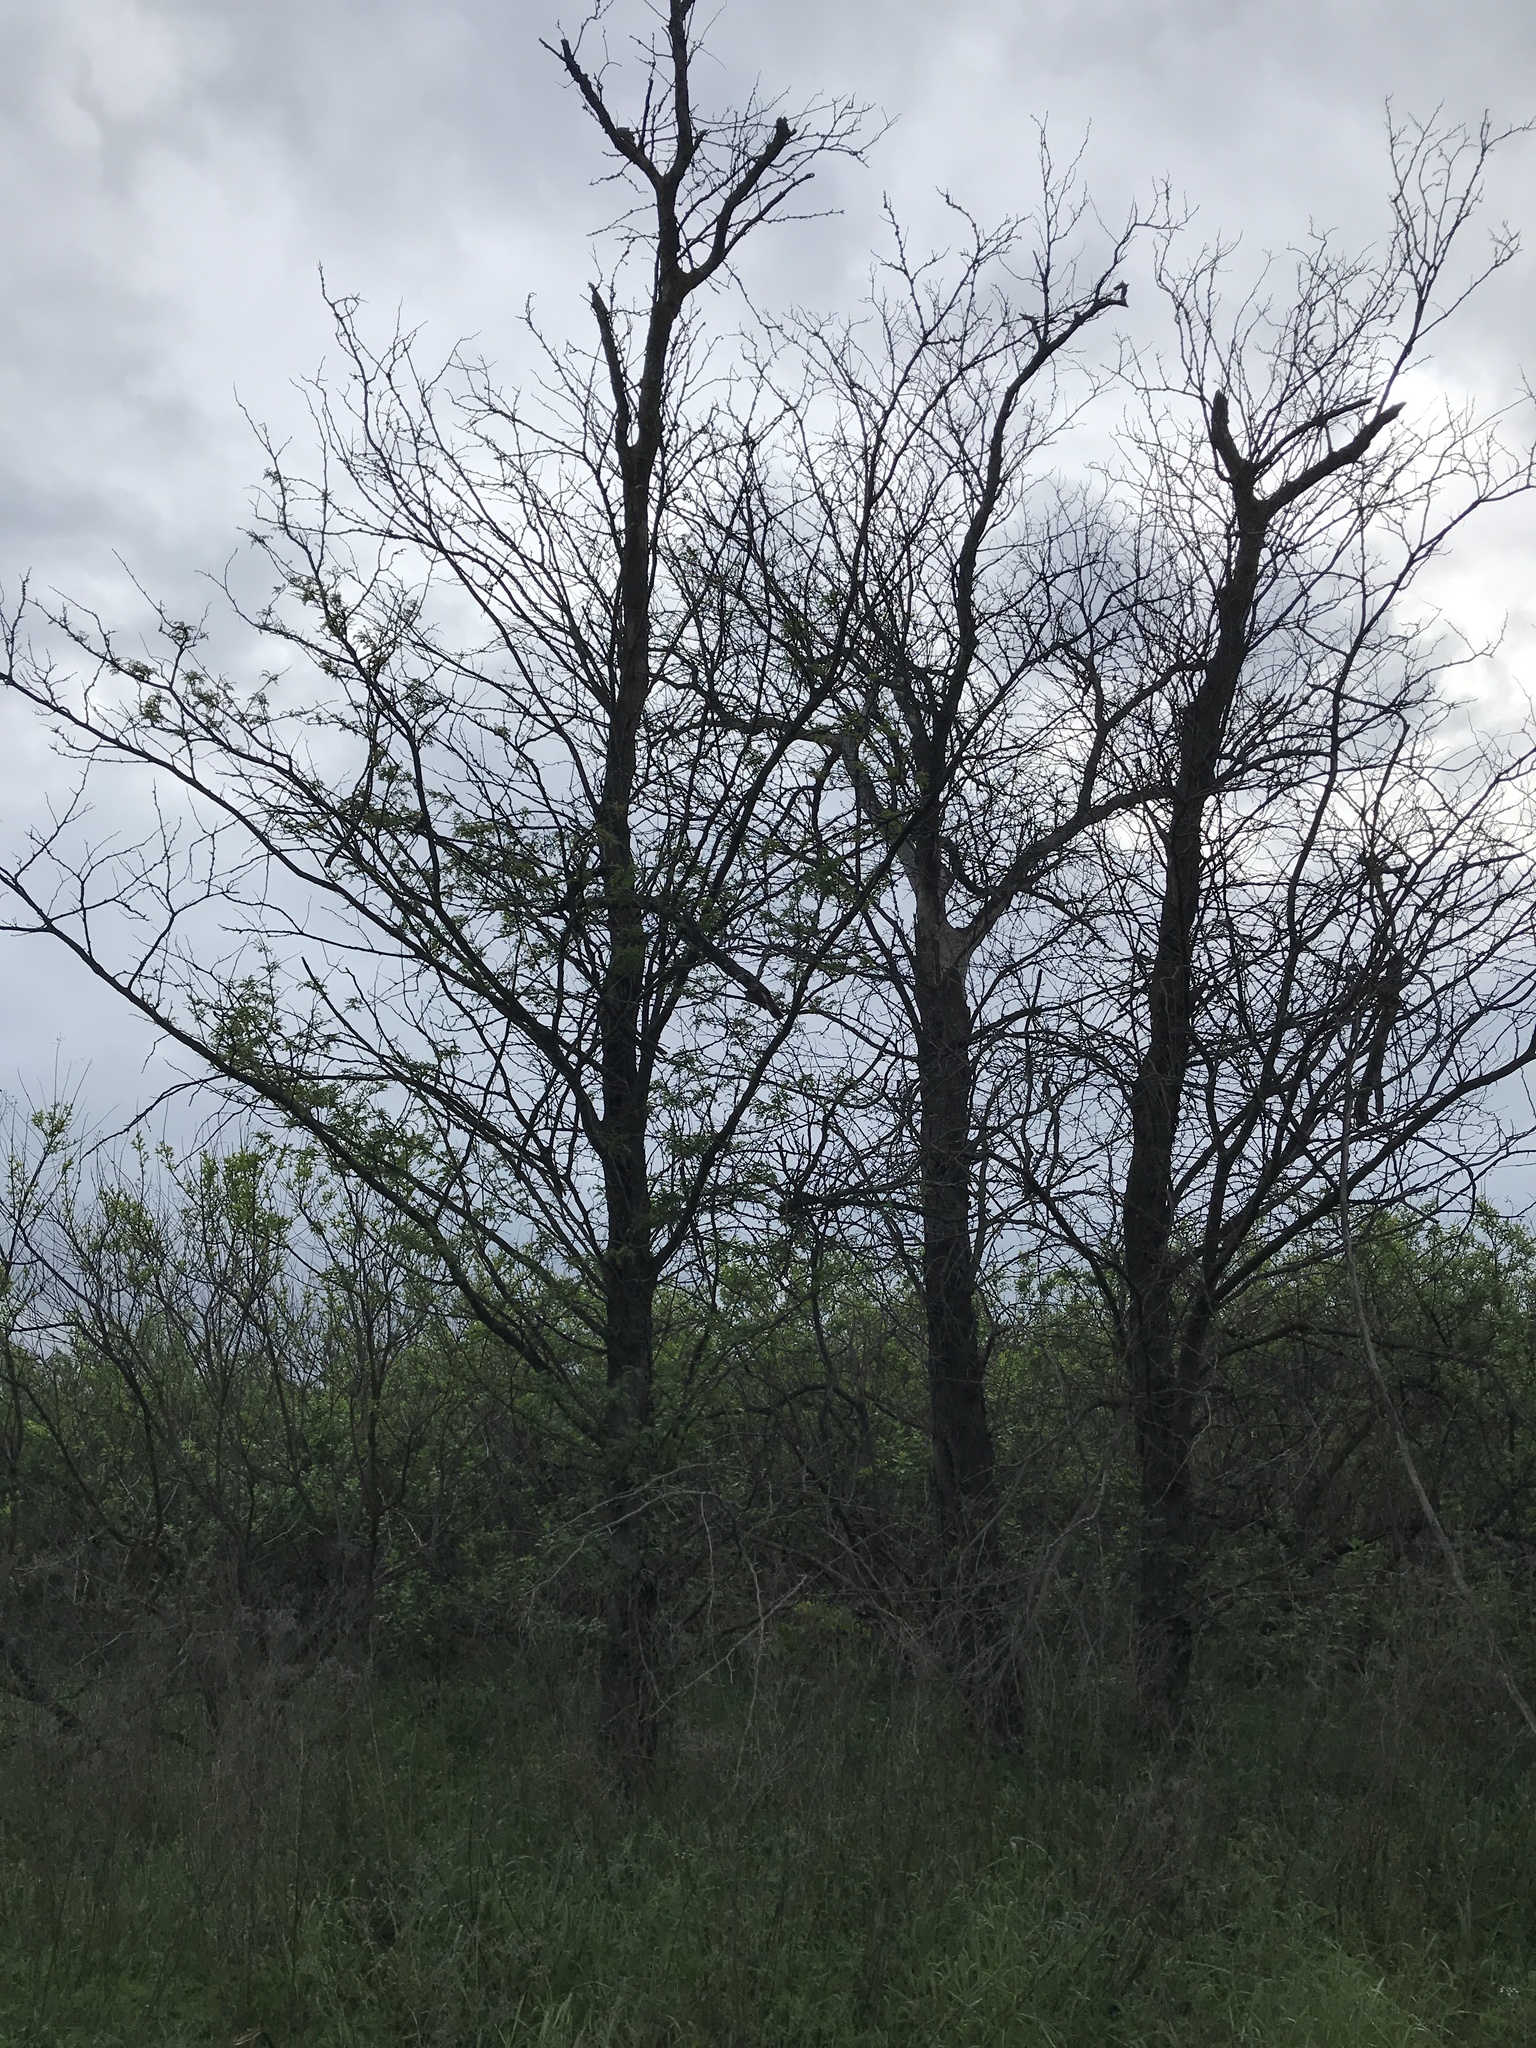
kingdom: Plantae
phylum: Tracheophyta
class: Magnoliopsida
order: Fabales
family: Fabaceae
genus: Gleditsia
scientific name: Gleditsia triacanthos
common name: Common honeylocust
